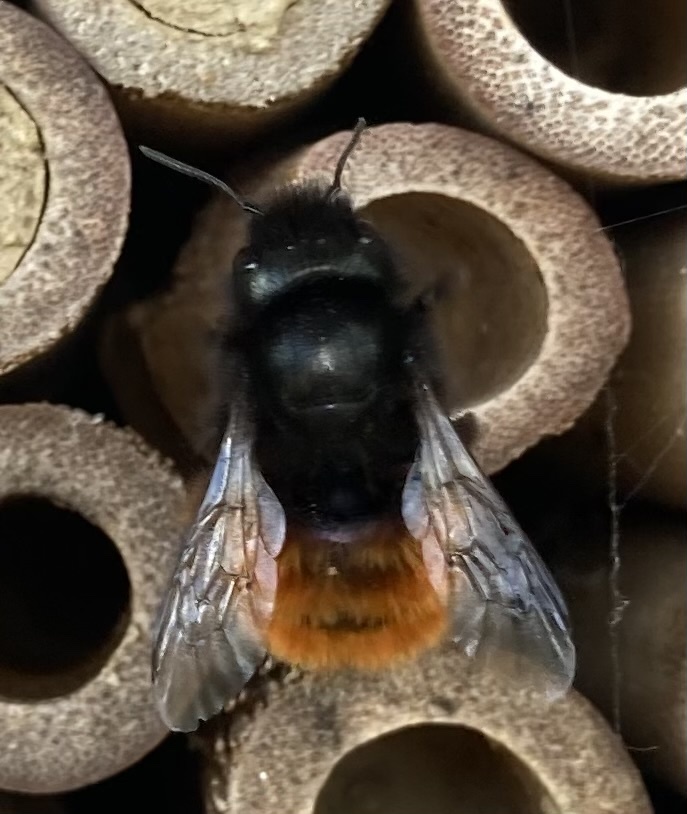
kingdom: Animalia
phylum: Arthropoda
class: Insecta
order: Hymenoptera
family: Megachilidae
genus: Osmia
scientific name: Osmia cornuta
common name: Mason bee
